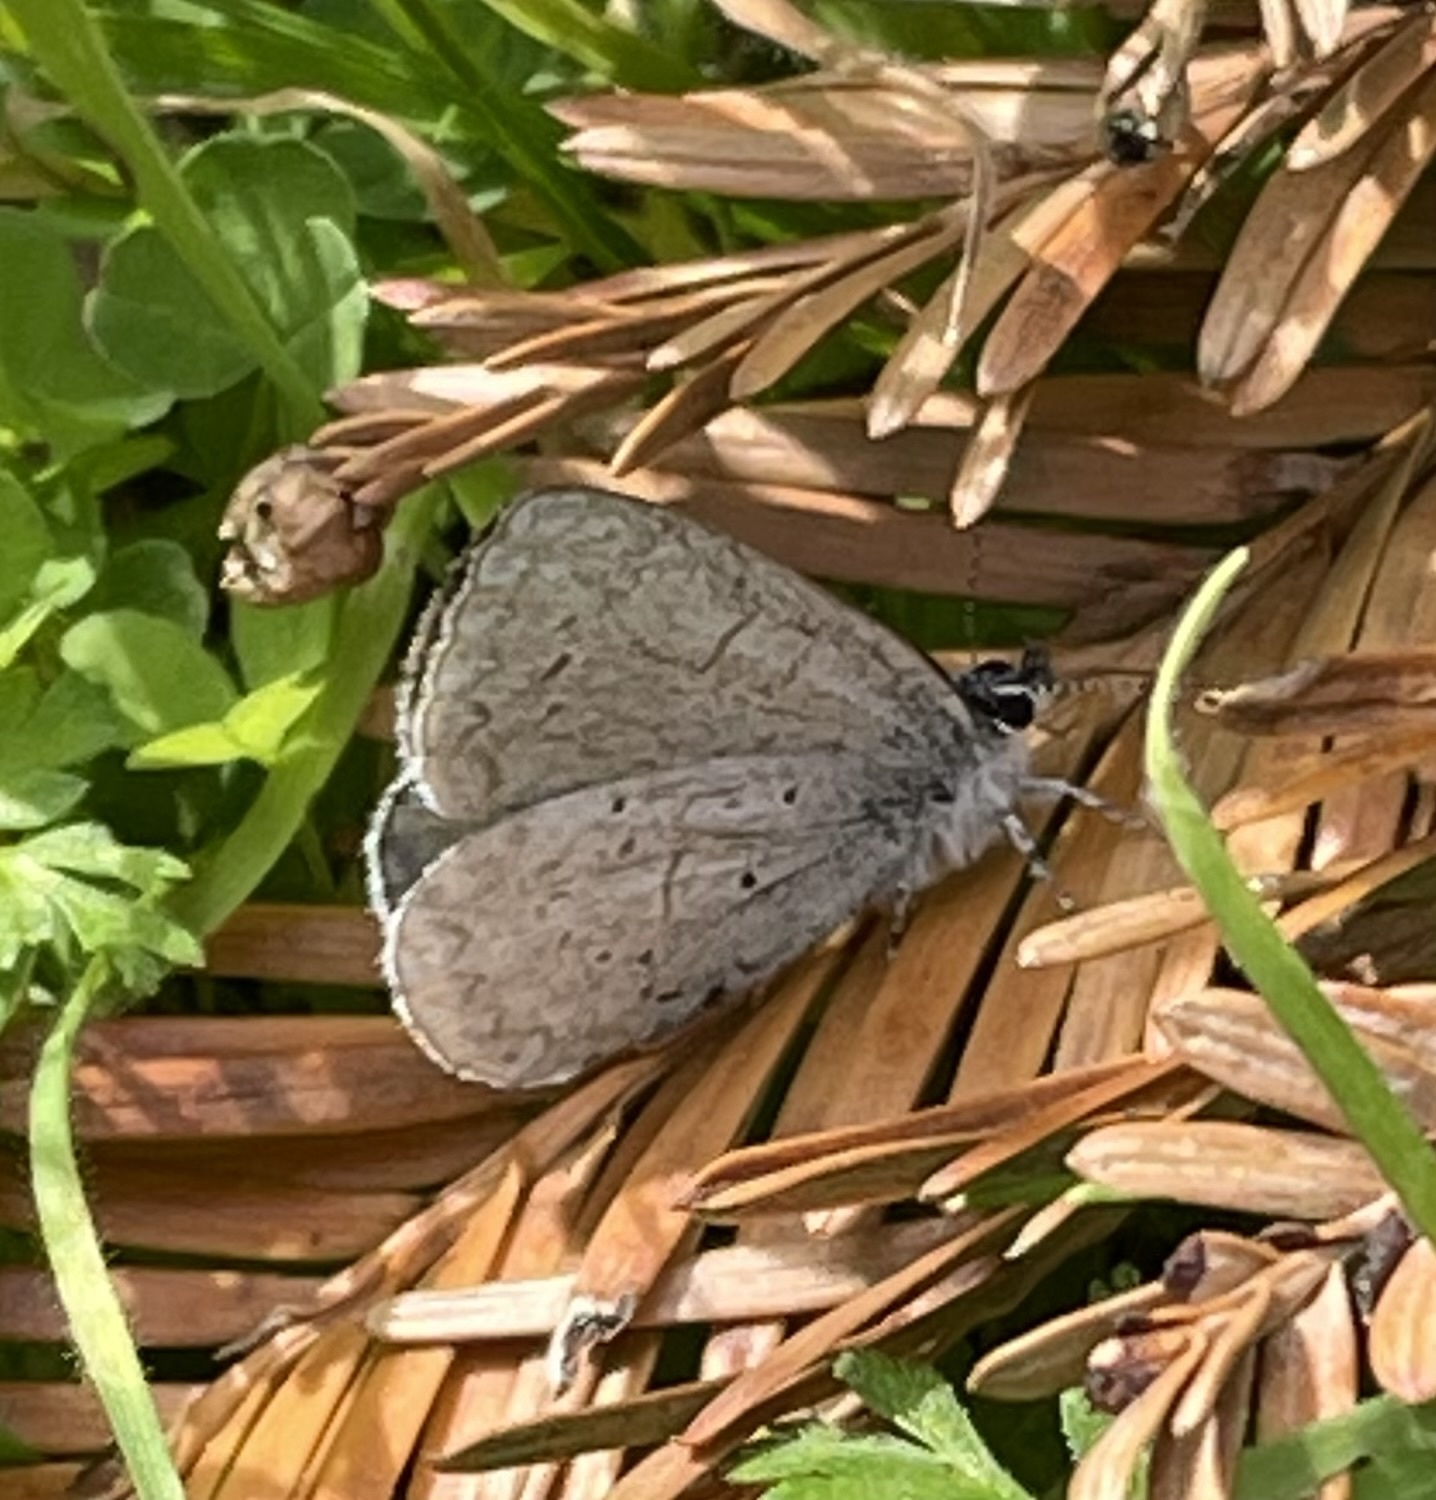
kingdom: Animalia
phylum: Arthropoda
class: Insecta
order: Lepidoptera
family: Lycaenidae
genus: Celastrina
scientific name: Celastrina ladon
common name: Spring azure
